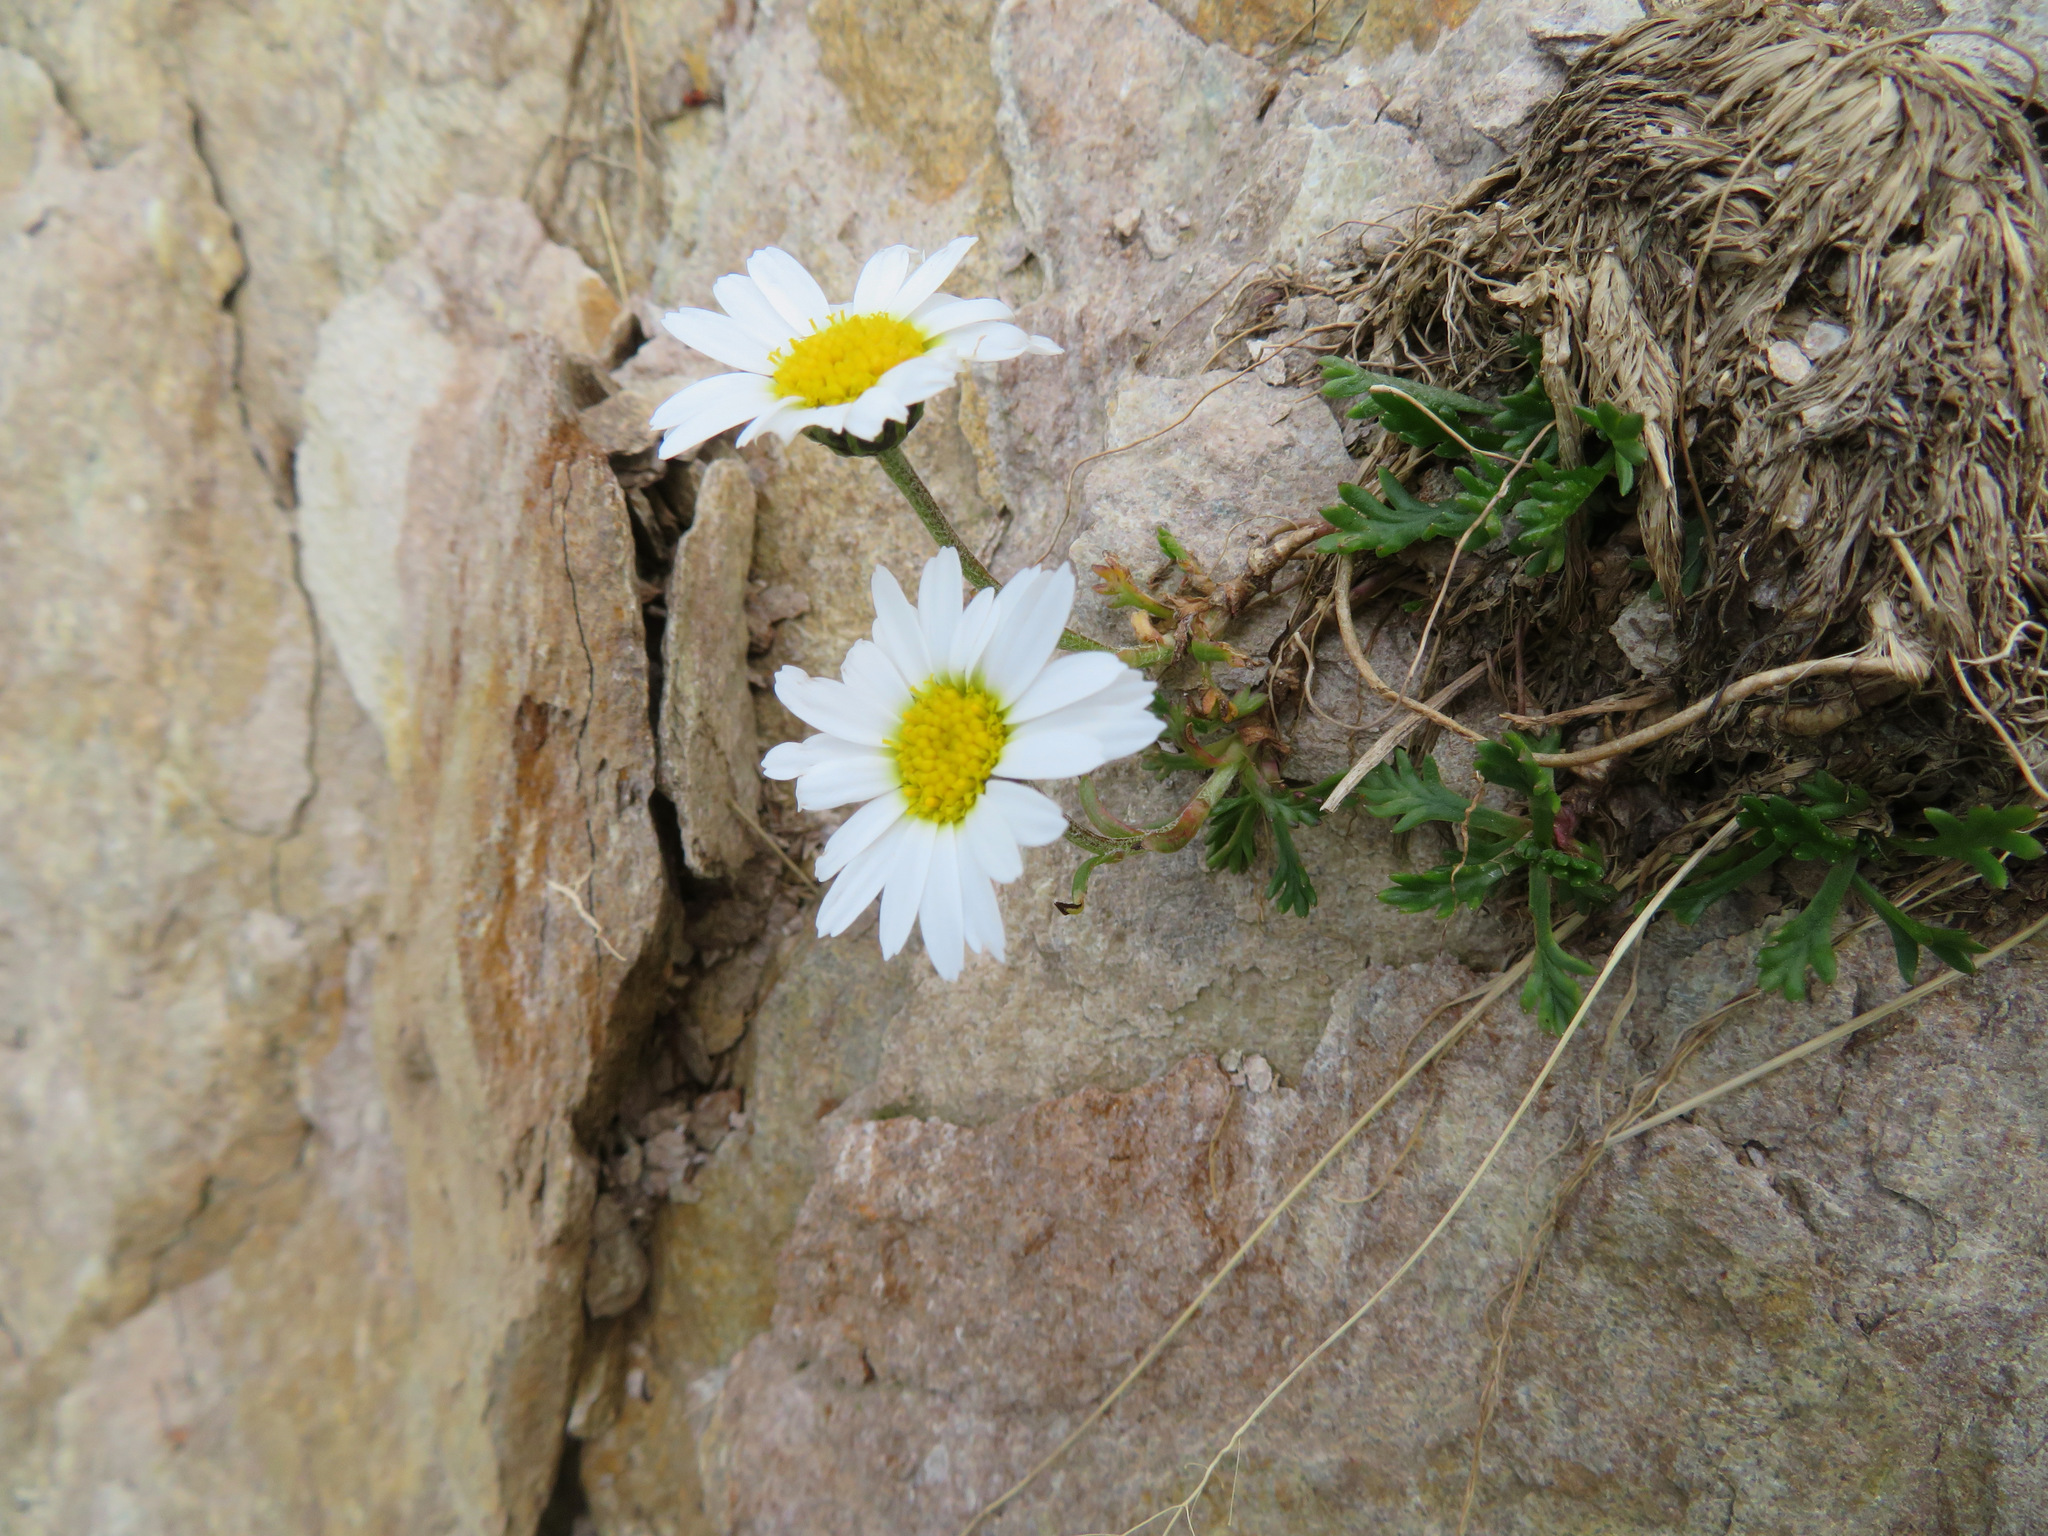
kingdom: Plantae
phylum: Tracheophyta
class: Magnoliopsida
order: Asterales
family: Asteraceae
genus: Leucanthemopsis
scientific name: Leucanthemopsis alpina
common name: Alpine moon daisy
